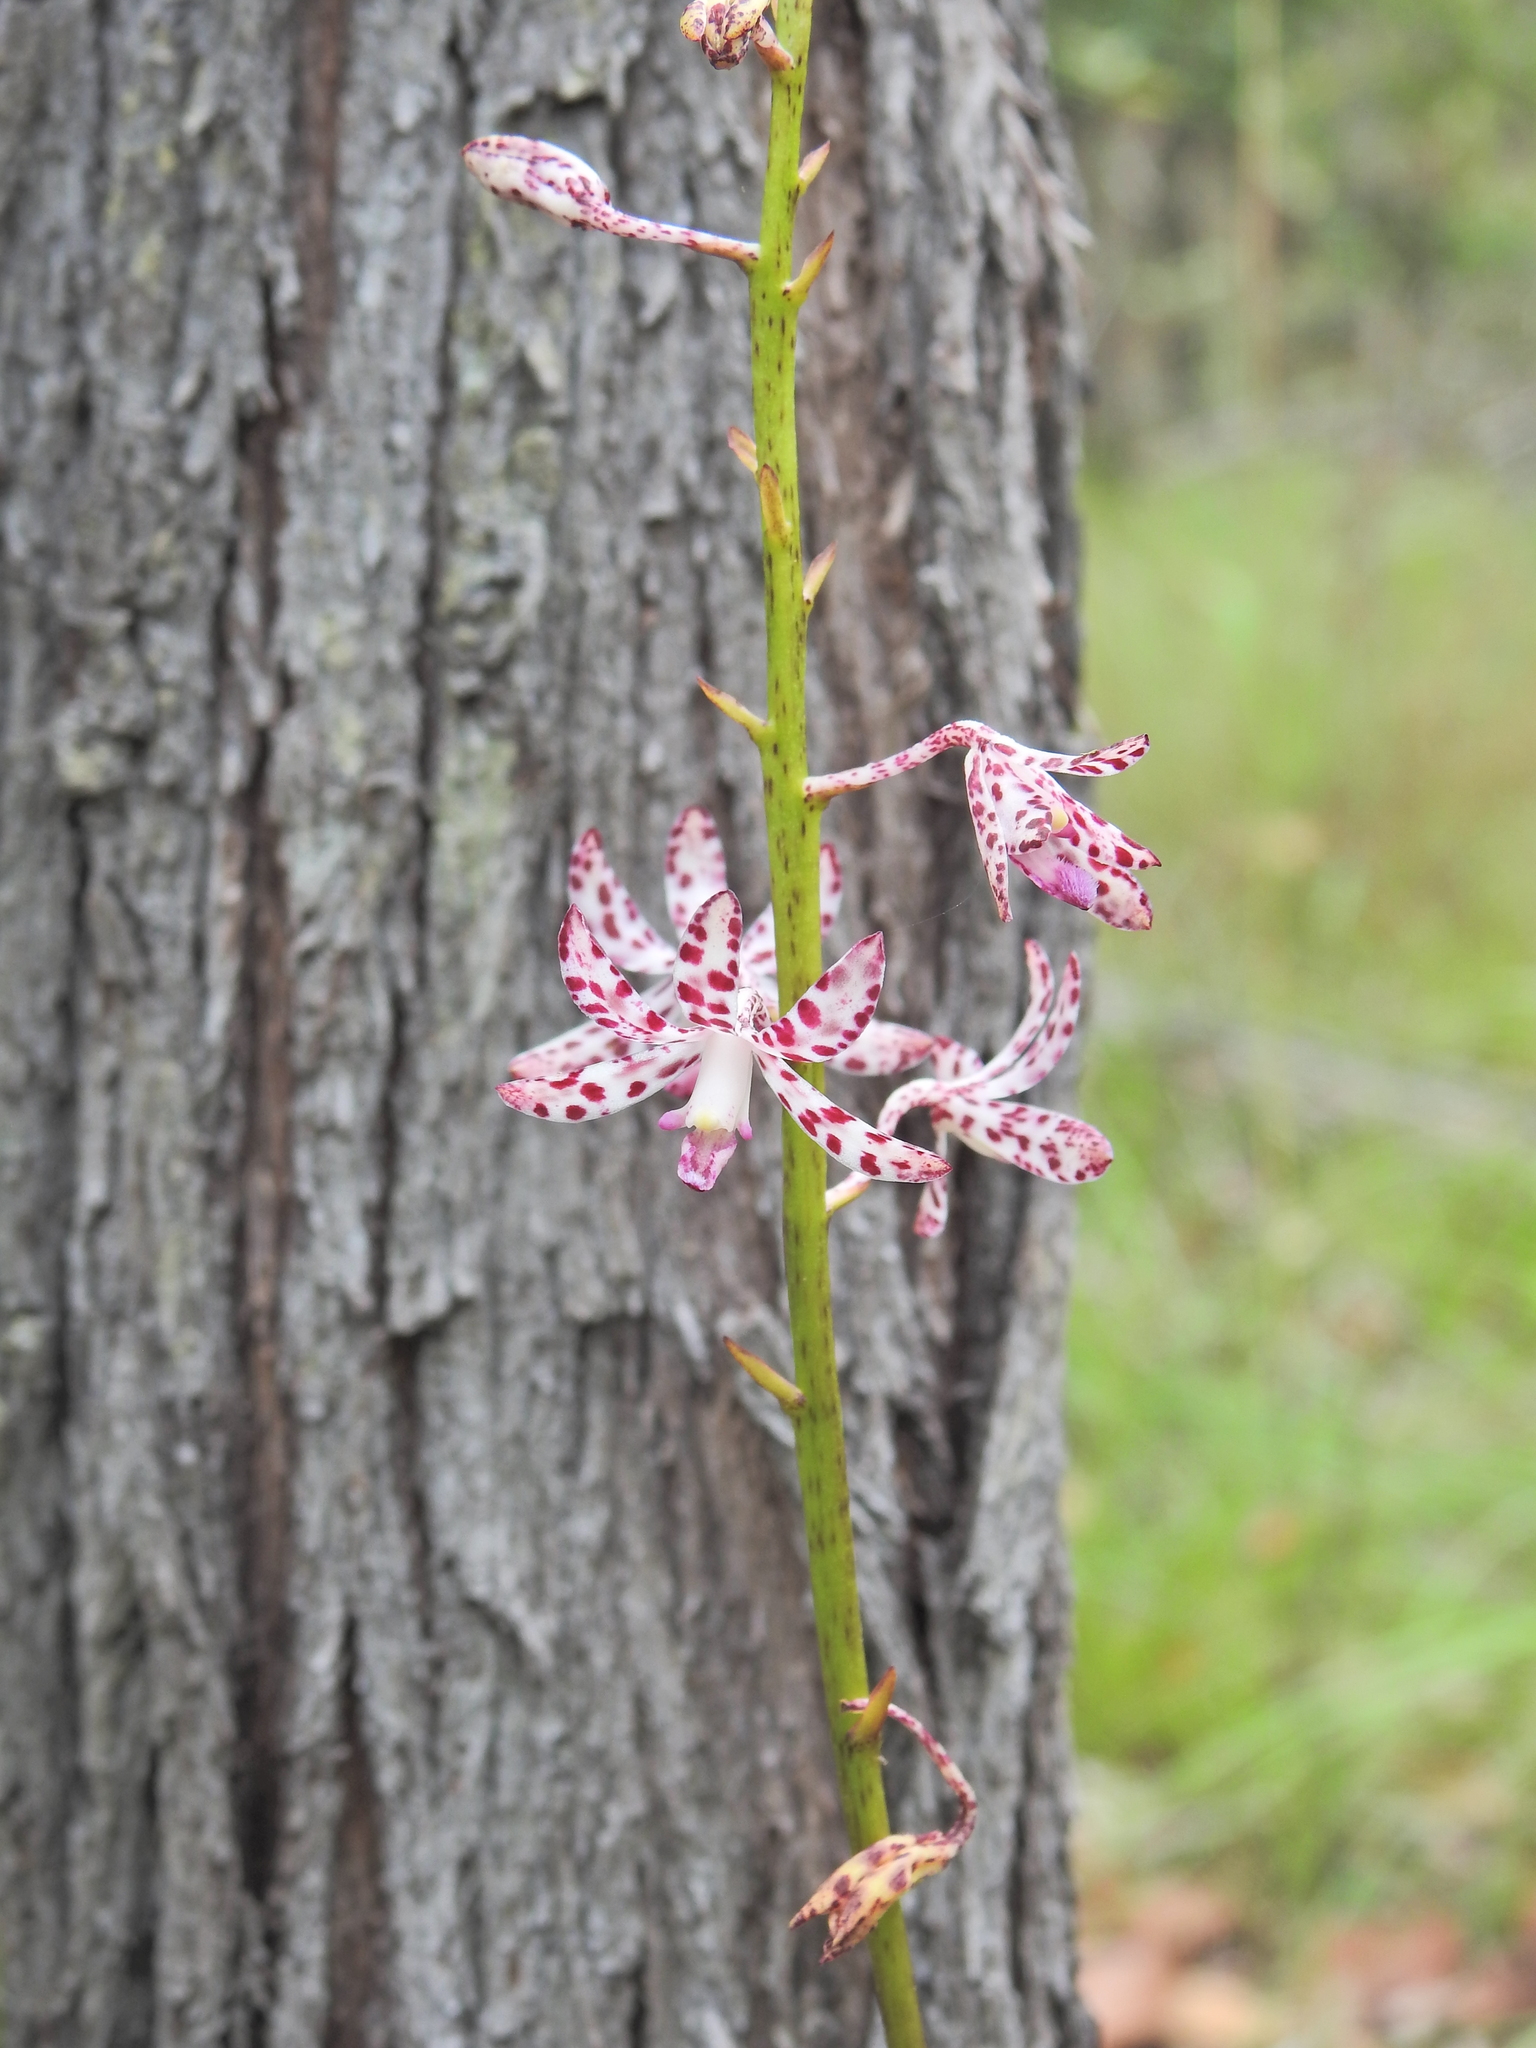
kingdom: Plantae
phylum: Tracheophyta
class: Liliopsida
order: Asparagales
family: Orchidaceae
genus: Dipodium
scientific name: Dipodium variegatum
